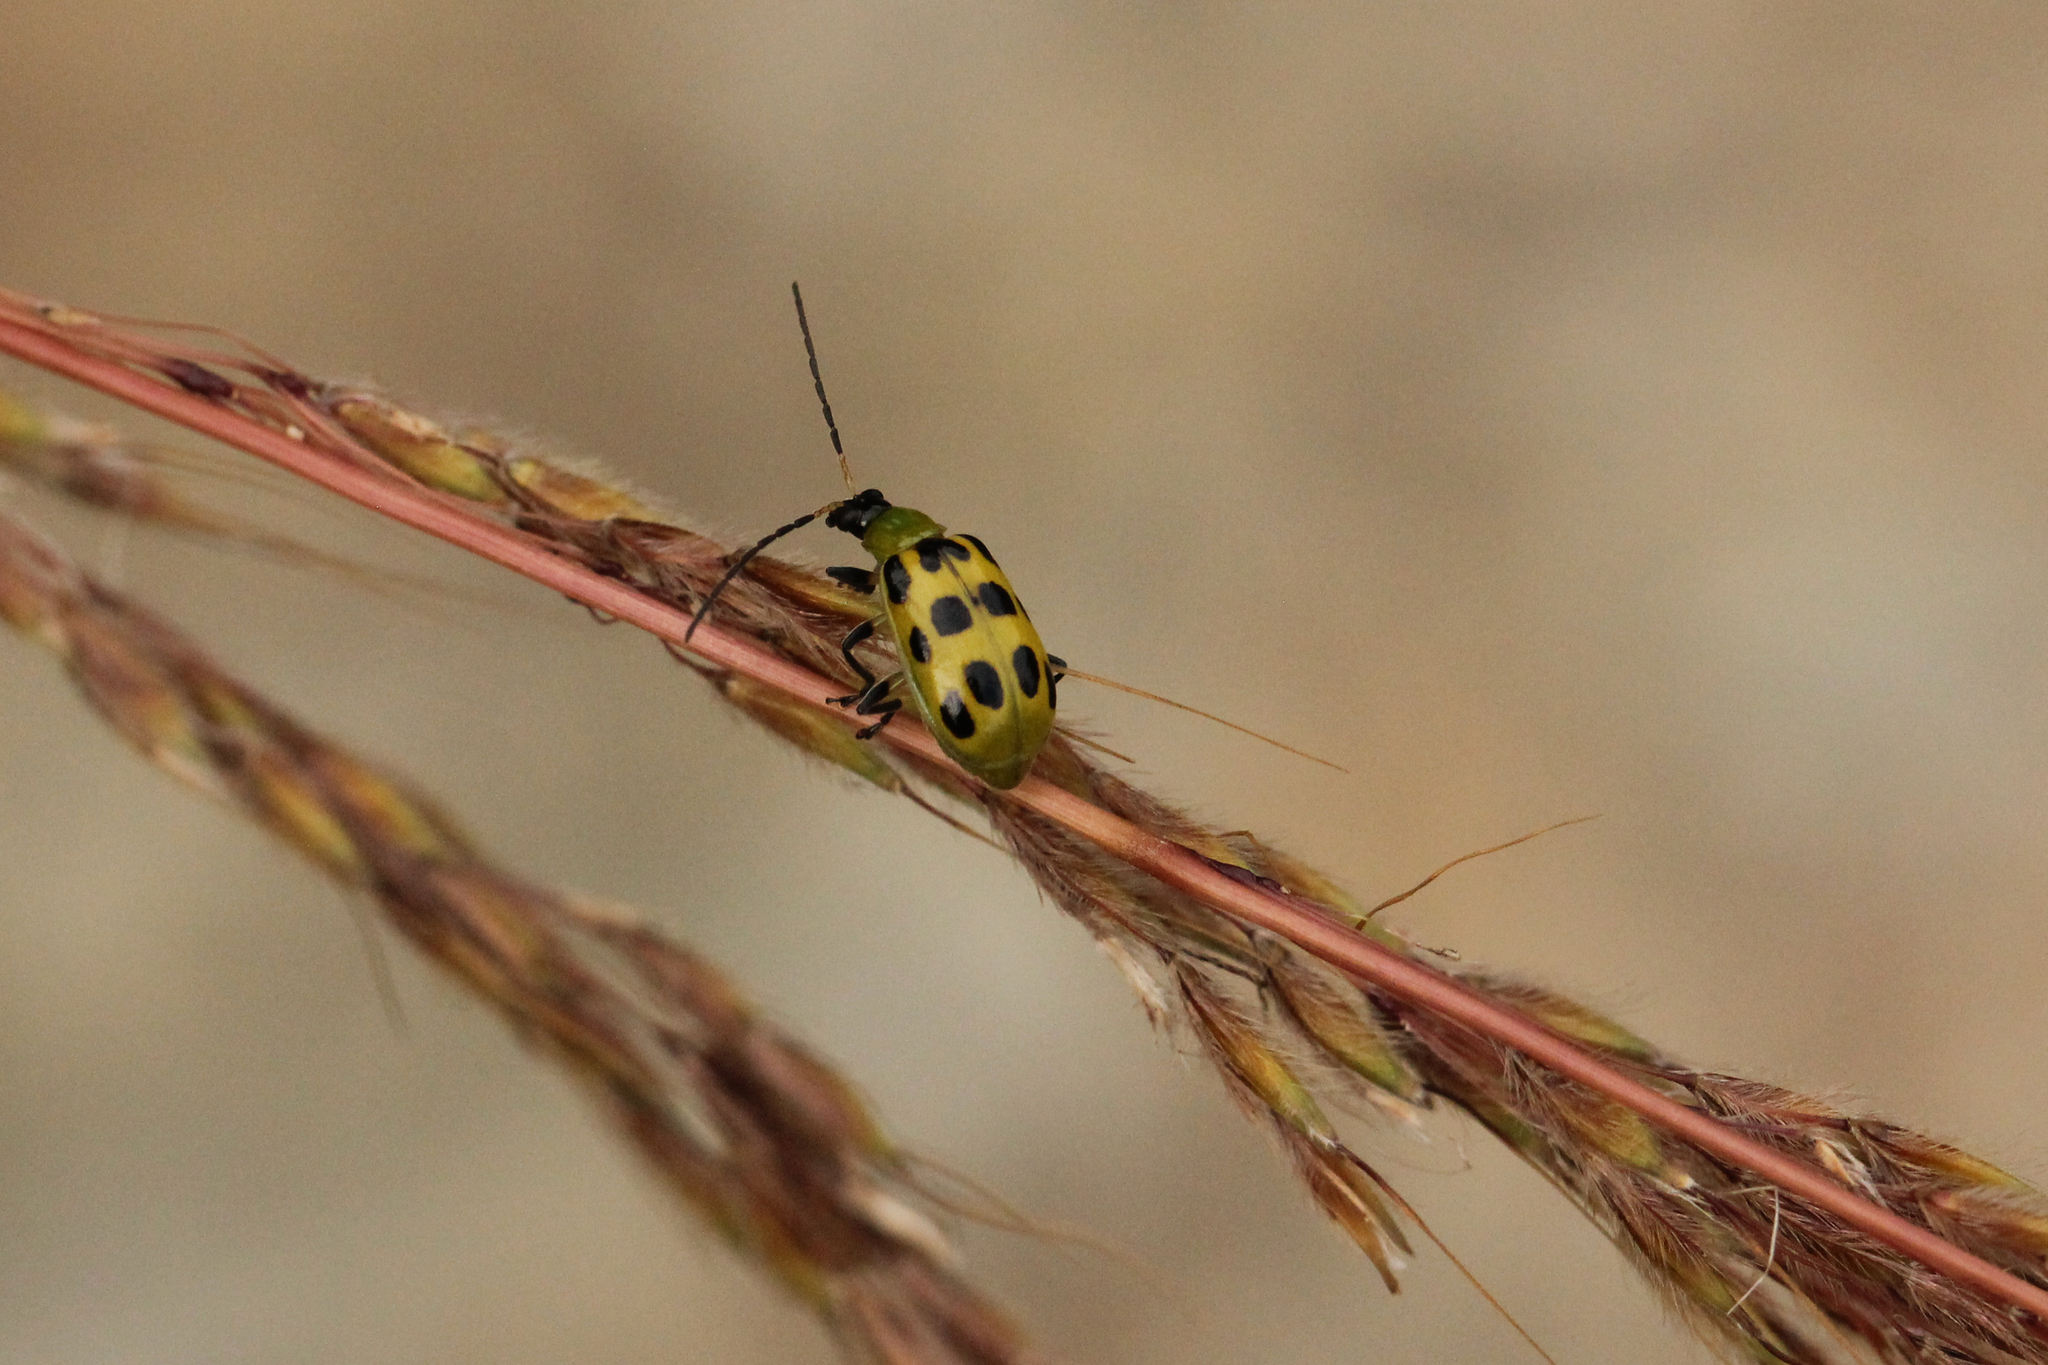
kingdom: Animalia
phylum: Arthropoda
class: Insecta
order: Coleoptera
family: Chrysomelidae
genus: Diabrotica
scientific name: Diabrotica undecimpunctata
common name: Spotted cucumber beetle
